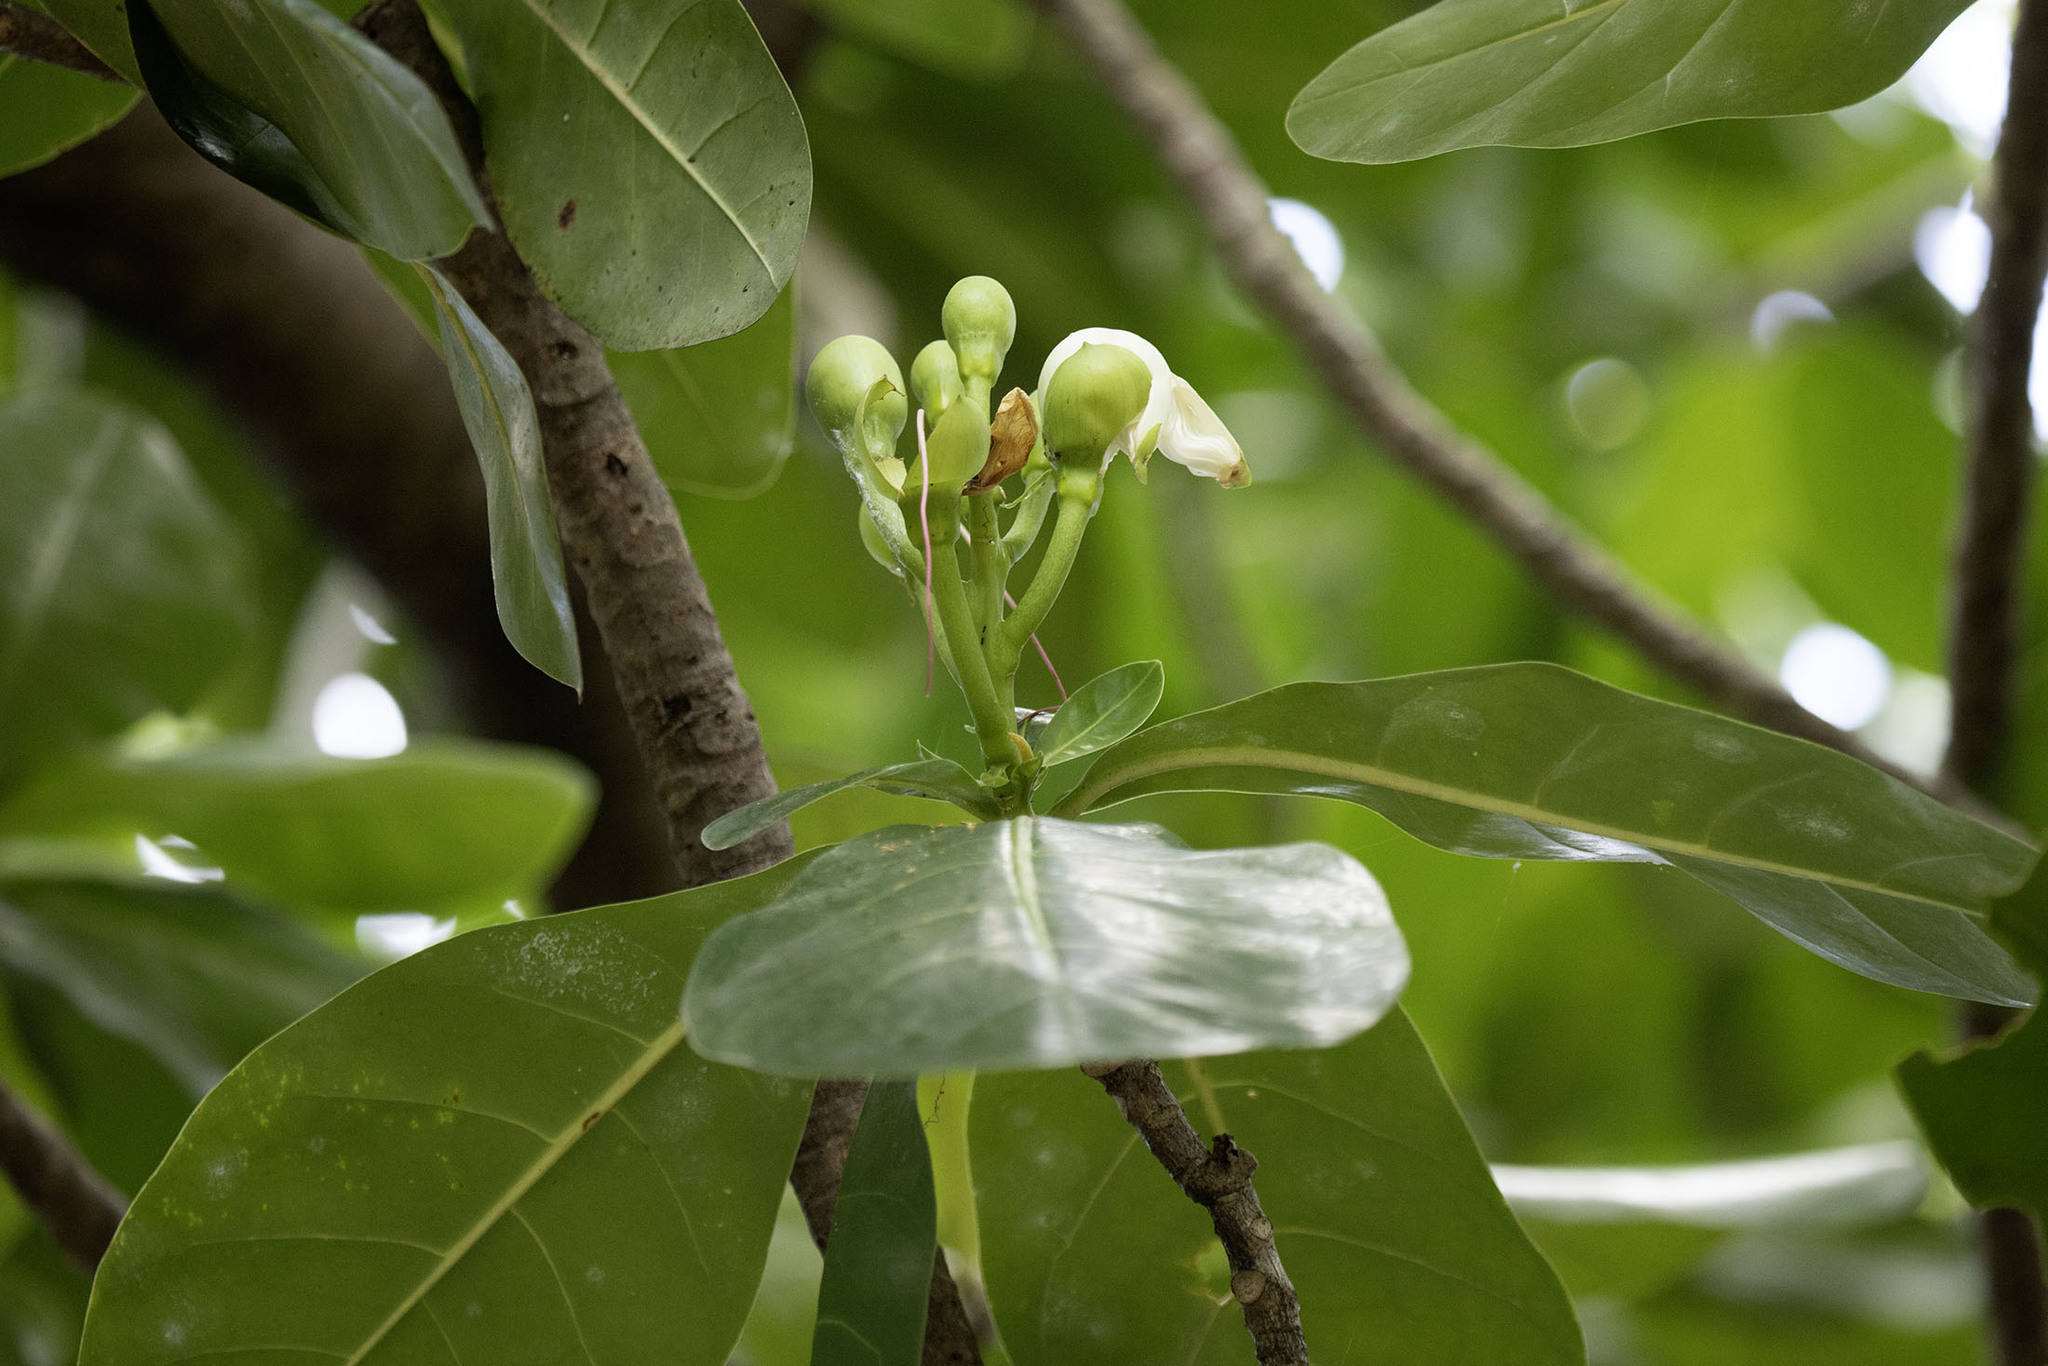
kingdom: Plantae
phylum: Tracheophyta
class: Magnoliopsida
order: Ericales
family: Lecythidaceae
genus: Barringtonia
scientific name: Barringtonia asiatica
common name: Mango-pine
